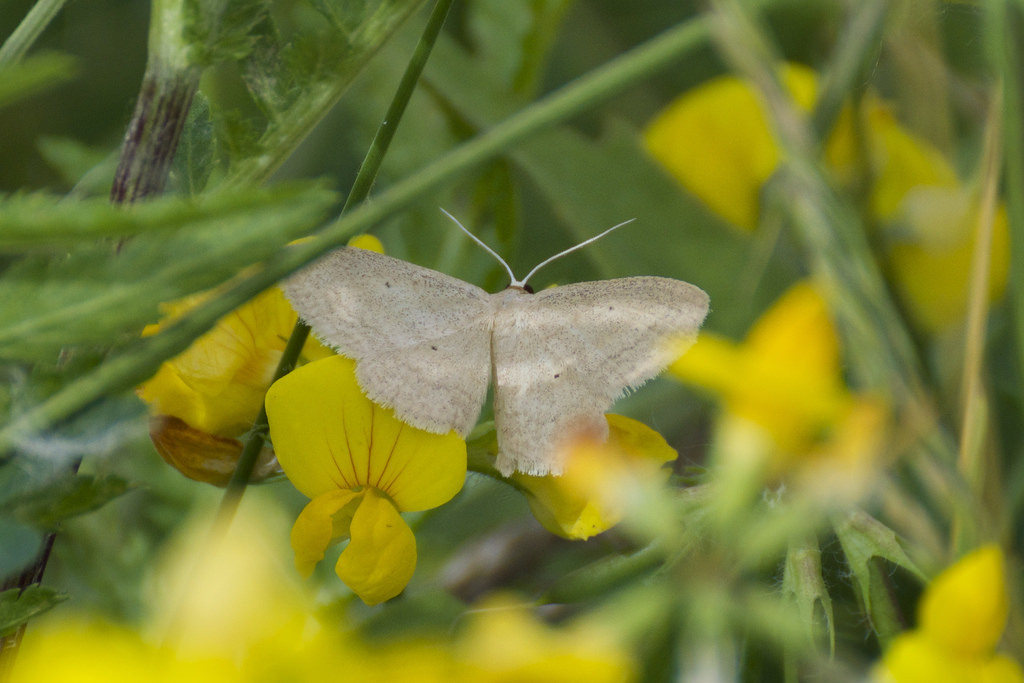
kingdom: Animalia
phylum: Arthropoda
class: Insecta
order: Lepidoptera
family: Geometridae
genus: Scopula
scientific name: Scopula inductata
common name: Soft-lined wave
